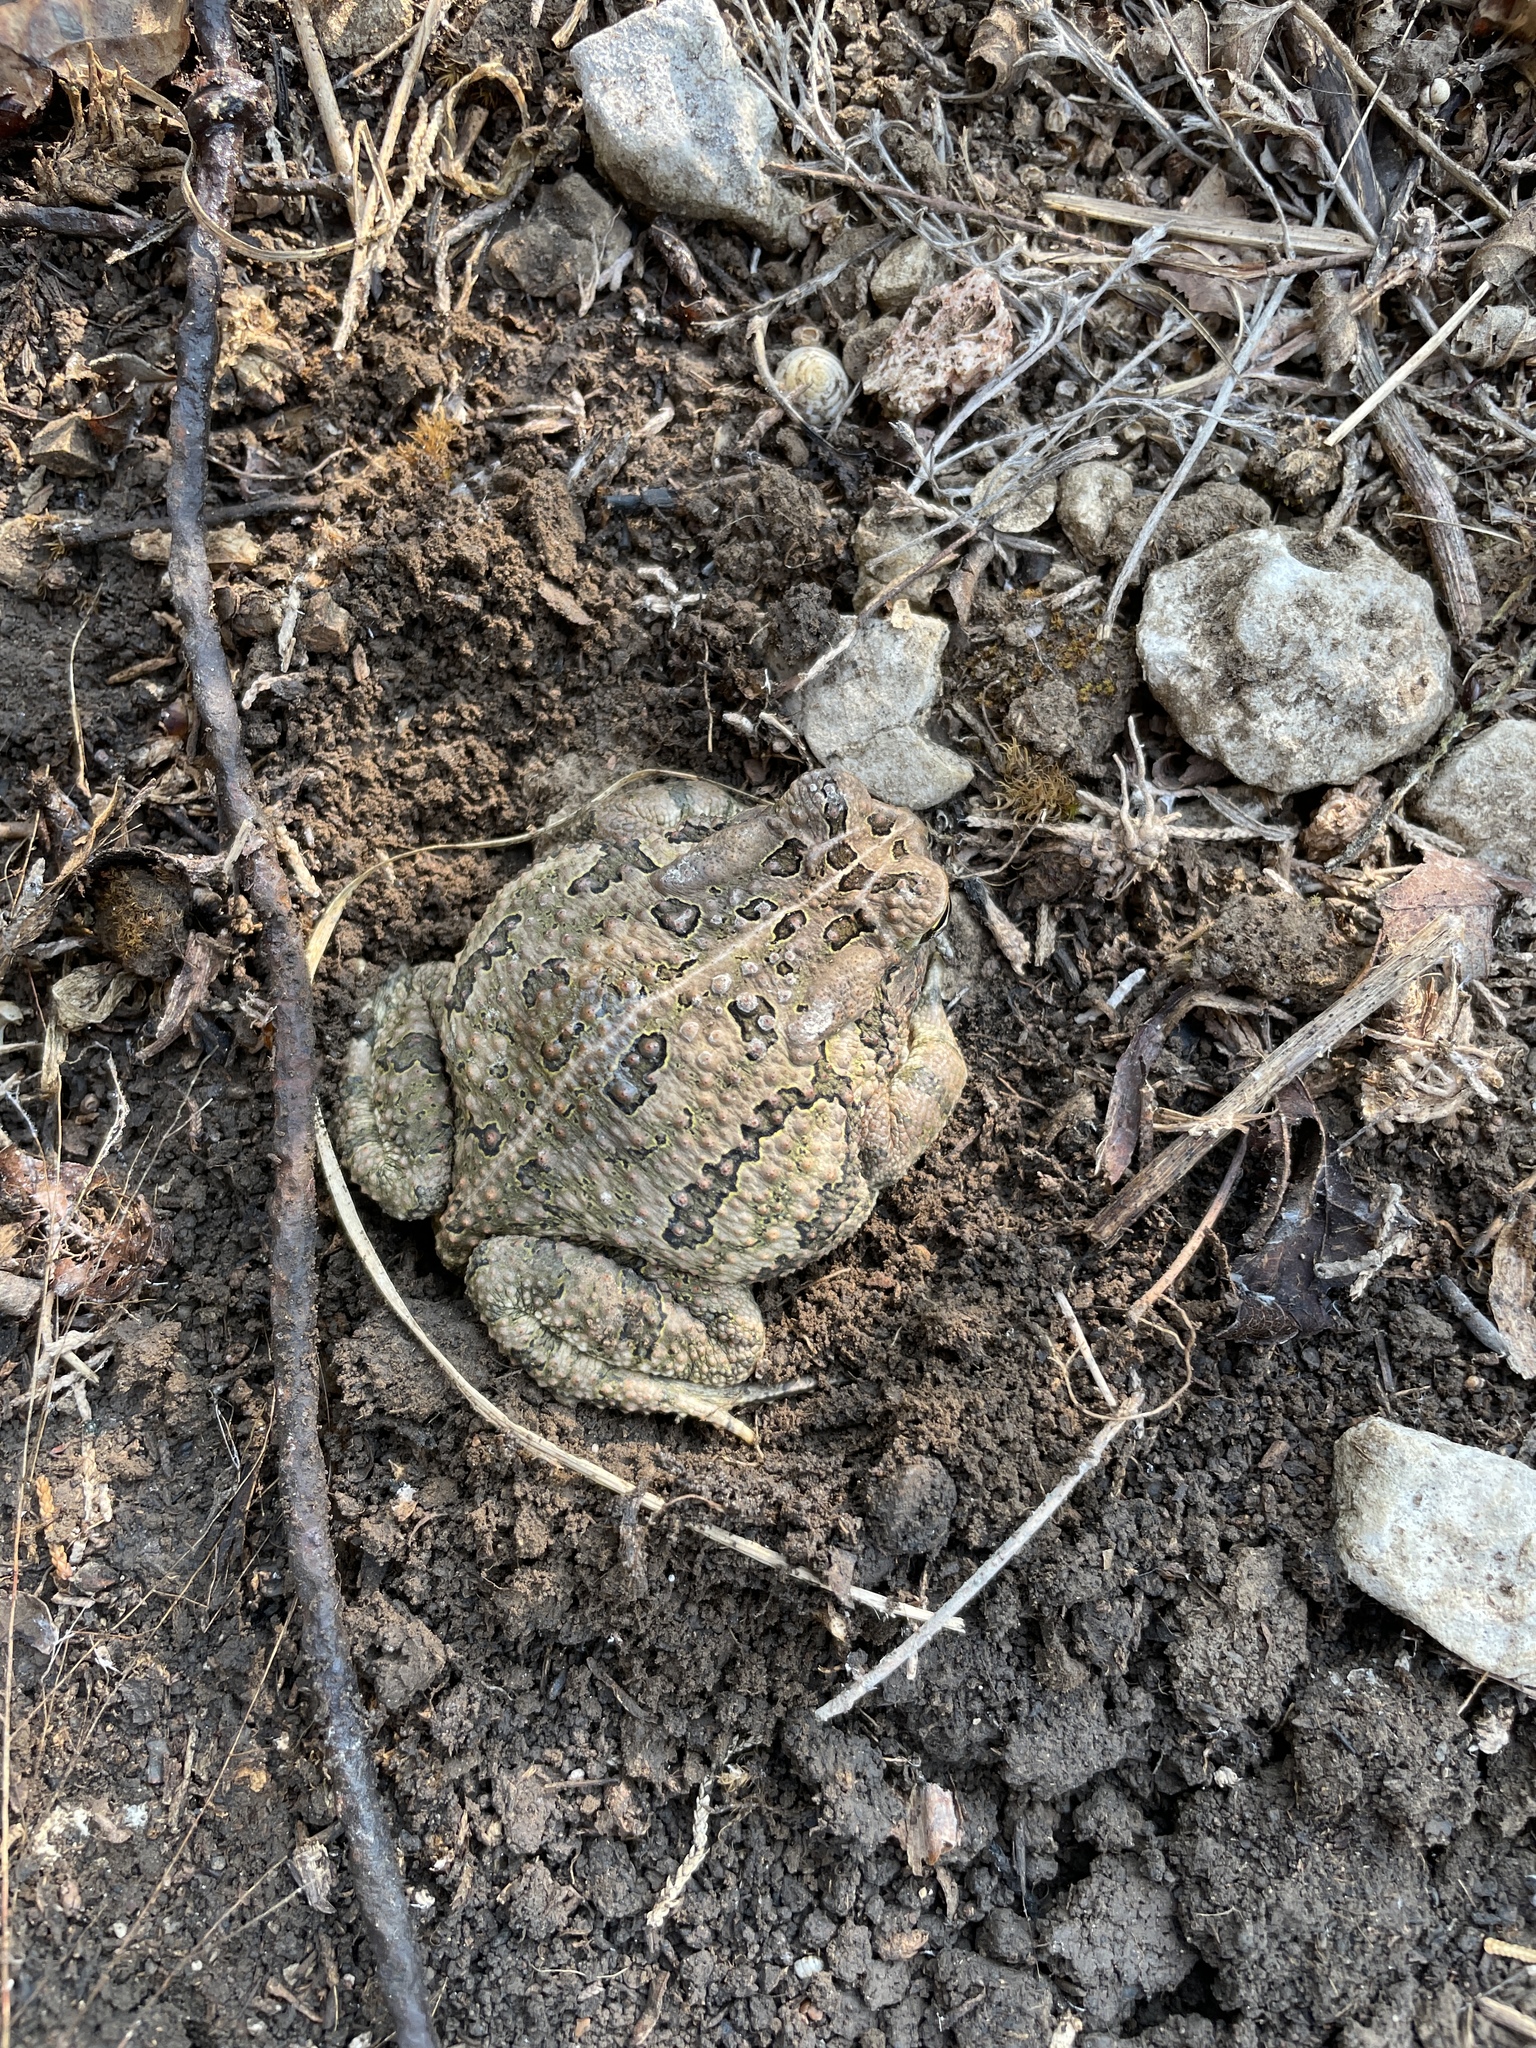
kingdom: Animalia
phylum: Chordata
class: Amphibia
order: Anura
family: Bufonidae
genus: Anaxyrus
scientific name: Anaxyrus fowleri
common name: Fowler's toad
